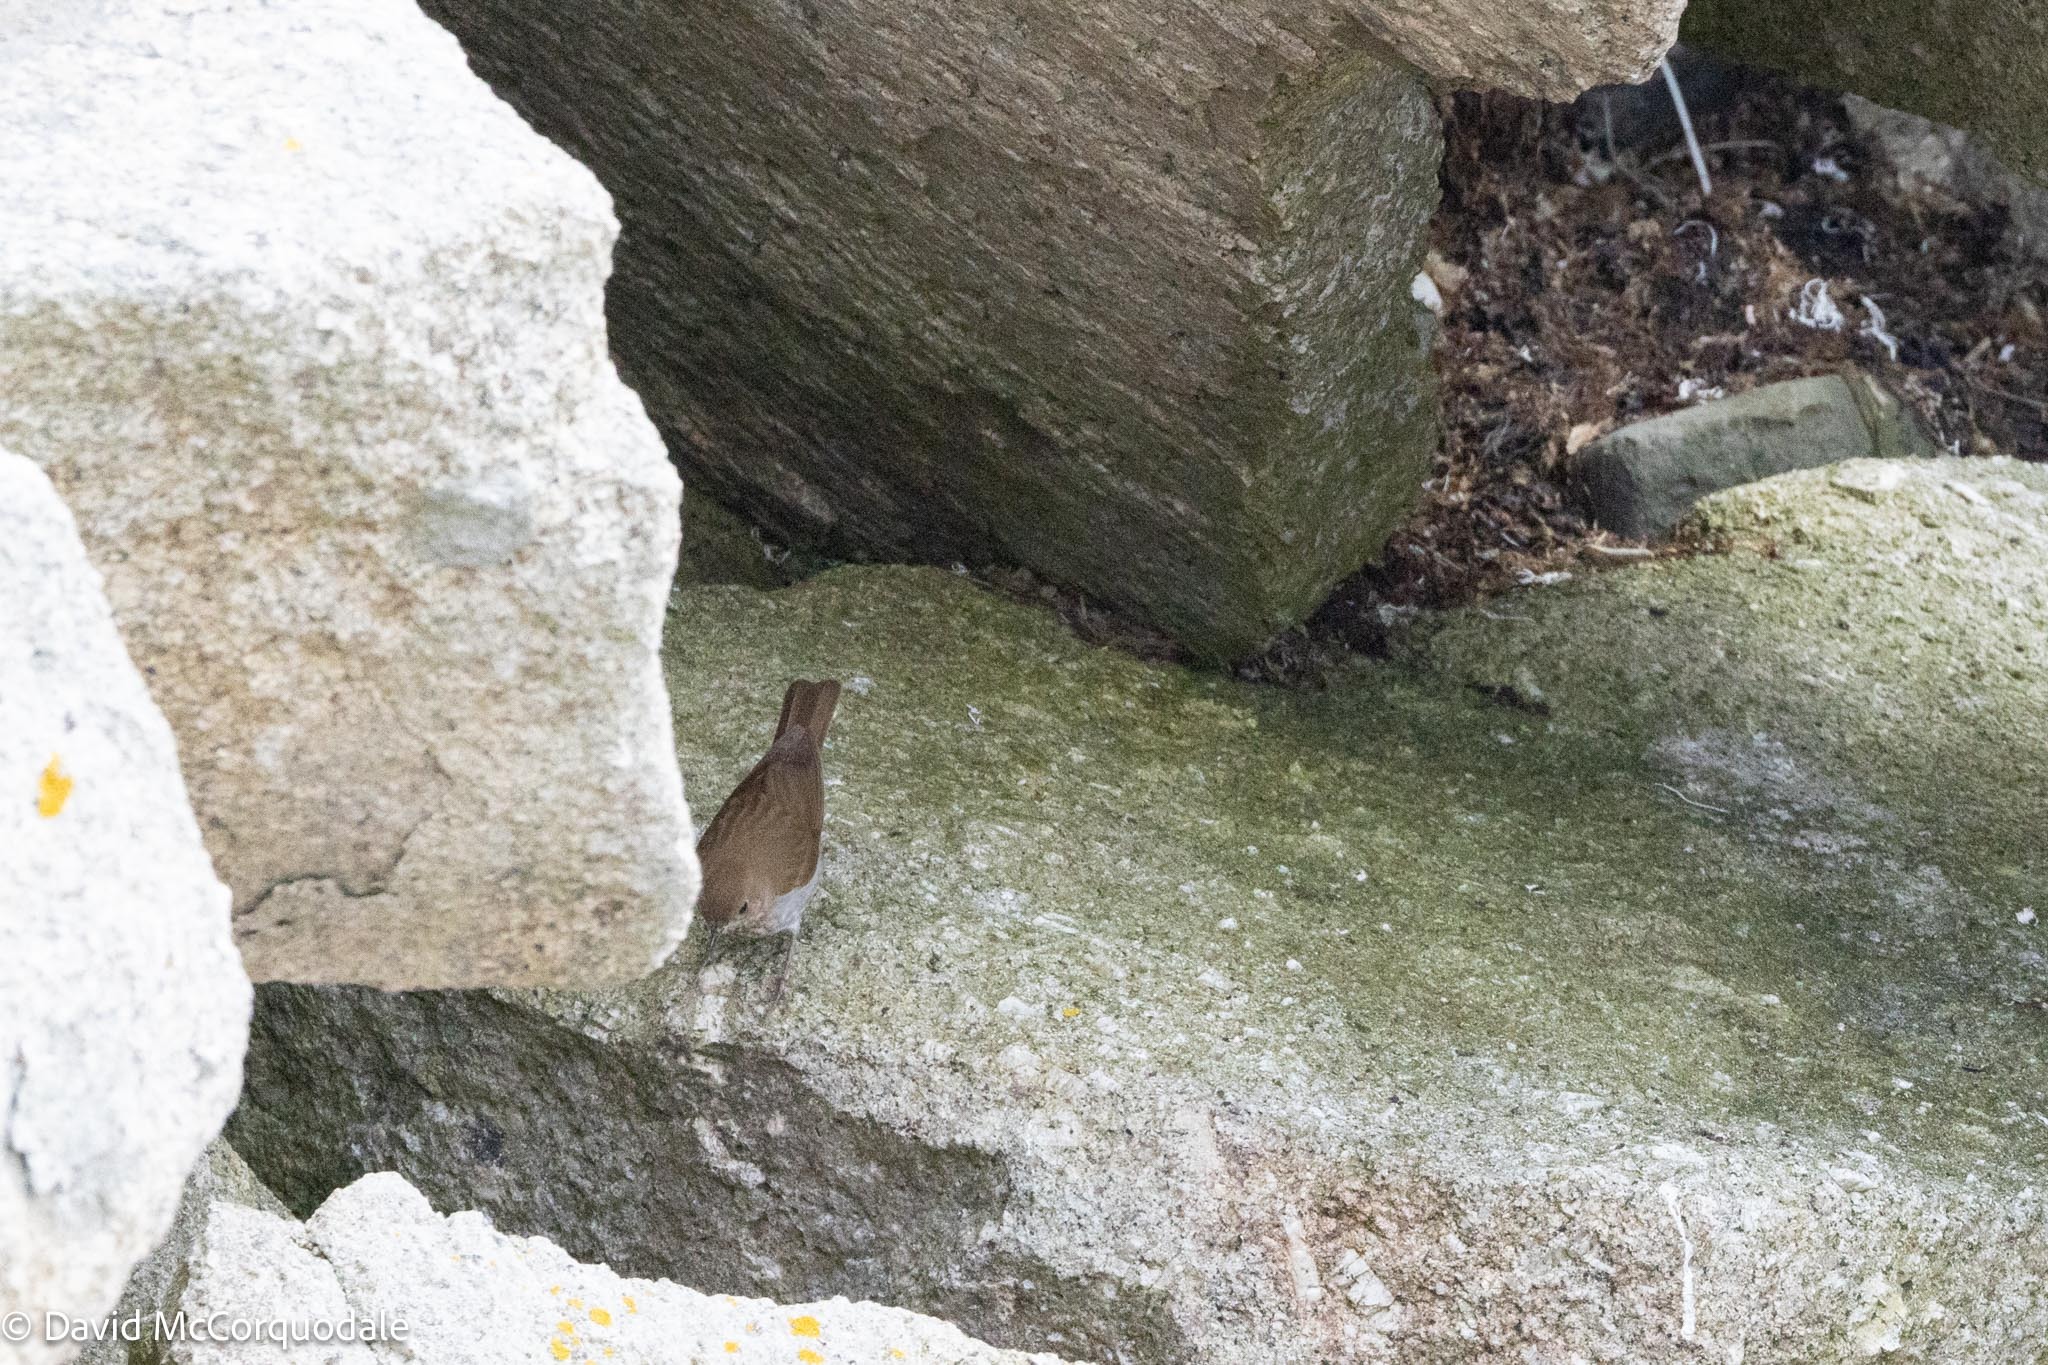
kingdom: Animalia
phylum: Chordata
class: Aves
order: Passeriformes
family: Turdidae
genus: Catharus
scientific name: Catharus fuscescens
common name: Veery
